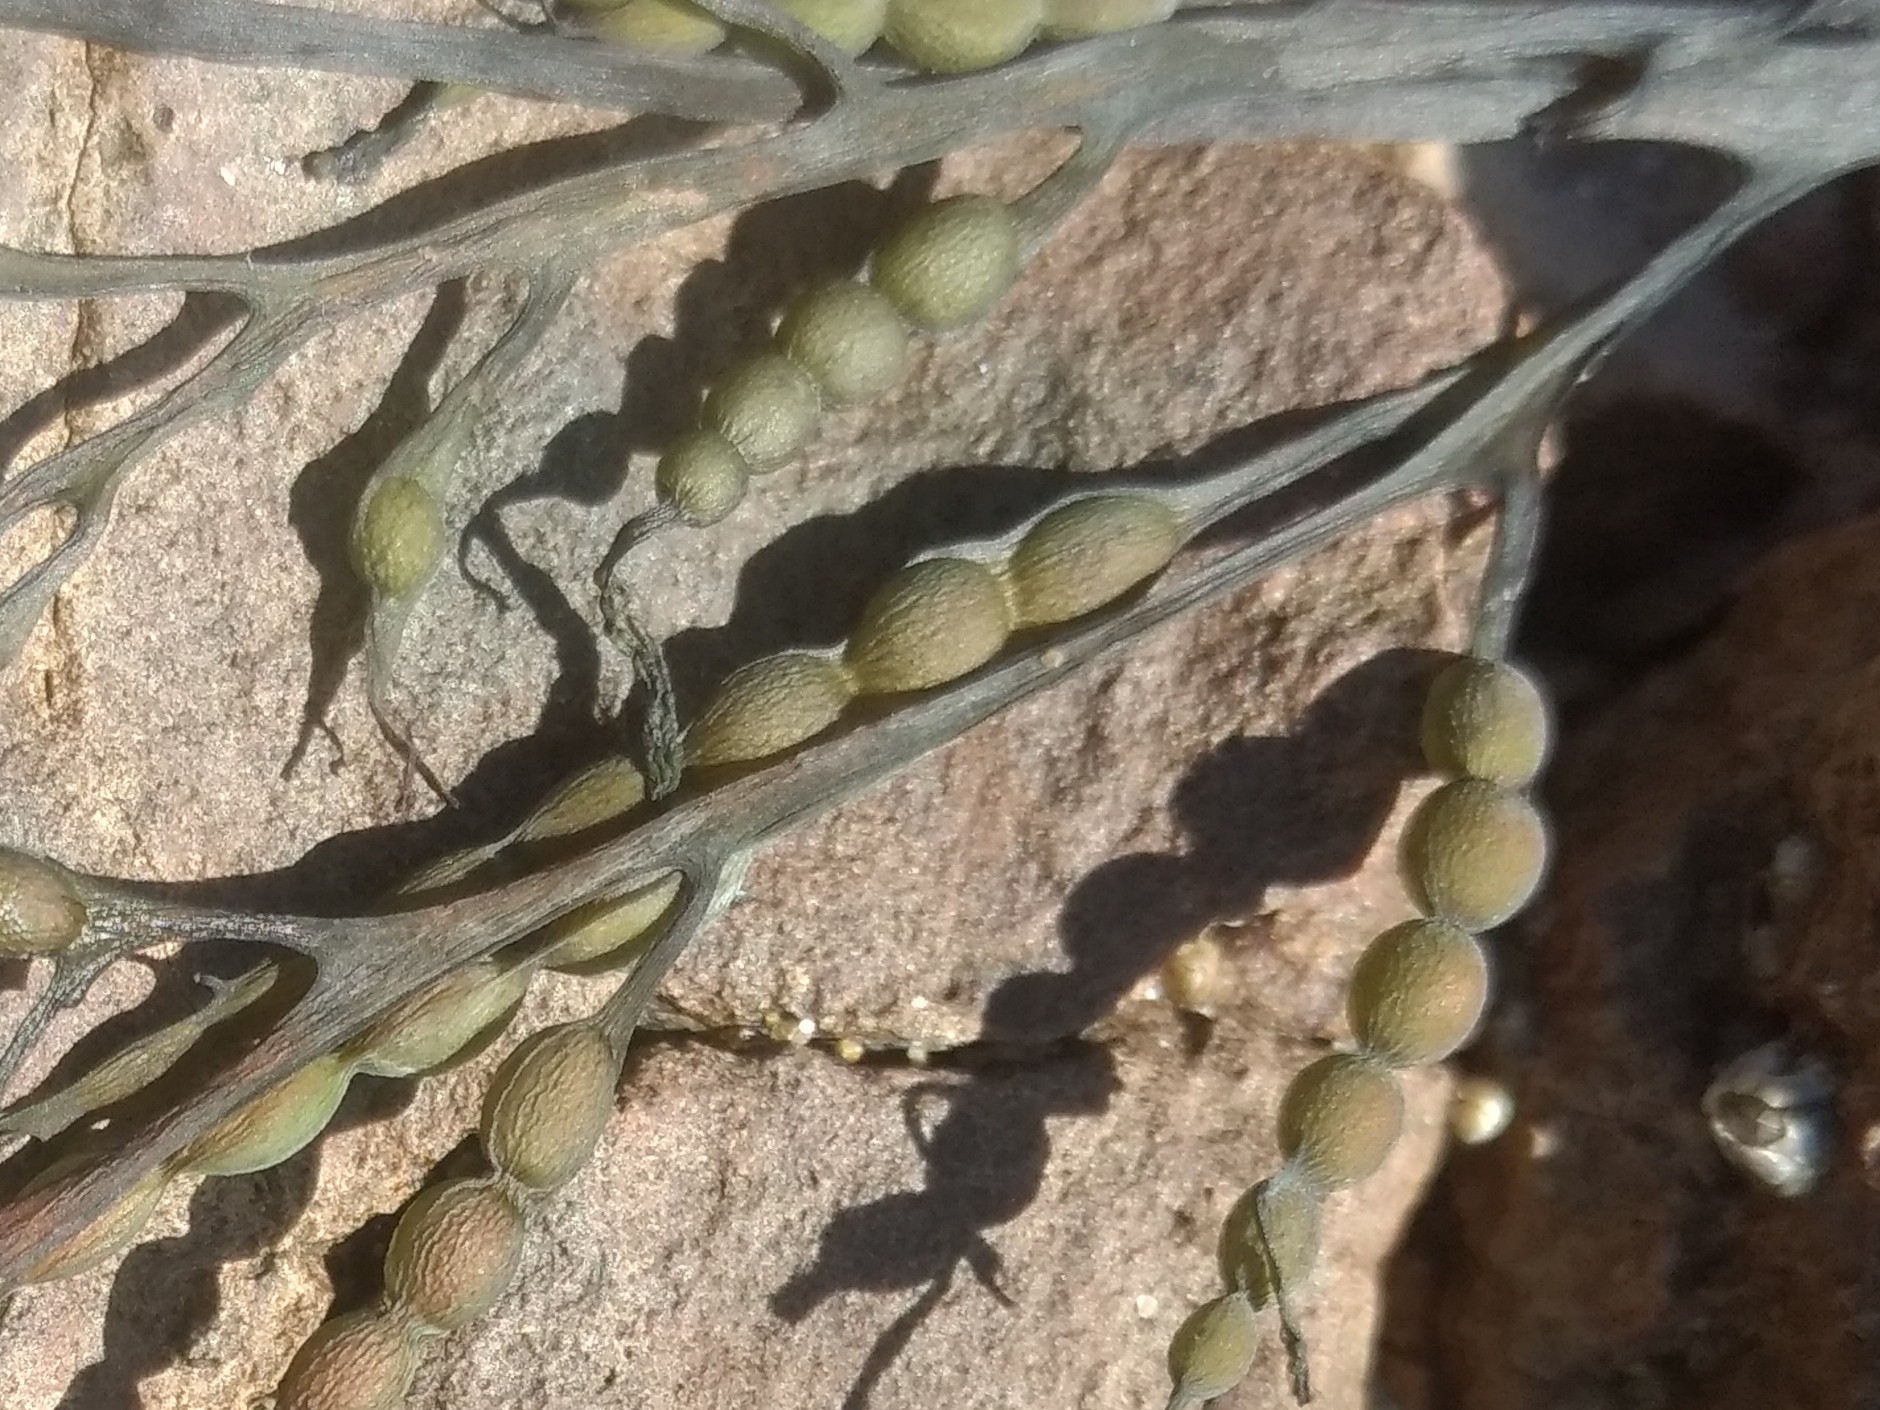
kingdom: Chromista
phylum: Ochrophyta
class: Phaeophyceae
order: Fucales
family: Sargassaceae
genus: Stephanocystis
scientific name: Stephanocystis
